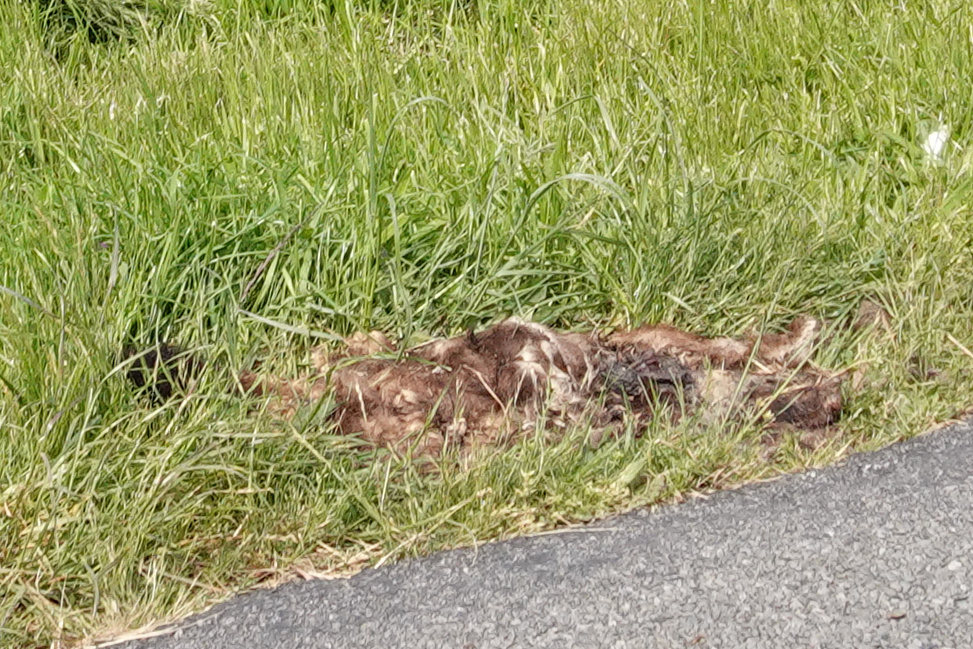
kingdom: Animalia
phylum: Chordata
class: Mammalia
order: Diprotodontia
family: Phalangeridae
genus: Trichosurus
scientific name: Trichosurus vulpecula
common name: Common brushtail
